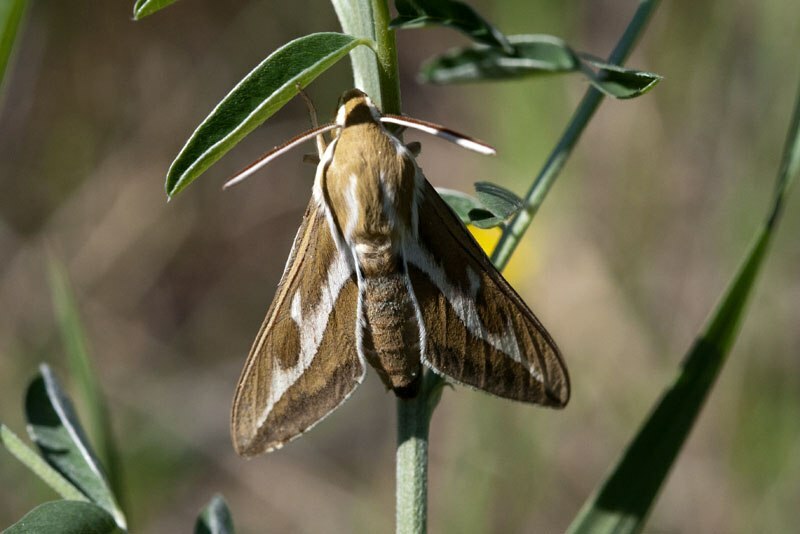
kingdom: Animalia
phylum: Arthropoda
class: Insecta
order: Lepidoptera
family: Sphingidae
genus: Hyles
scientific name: Hyles zygophylli
